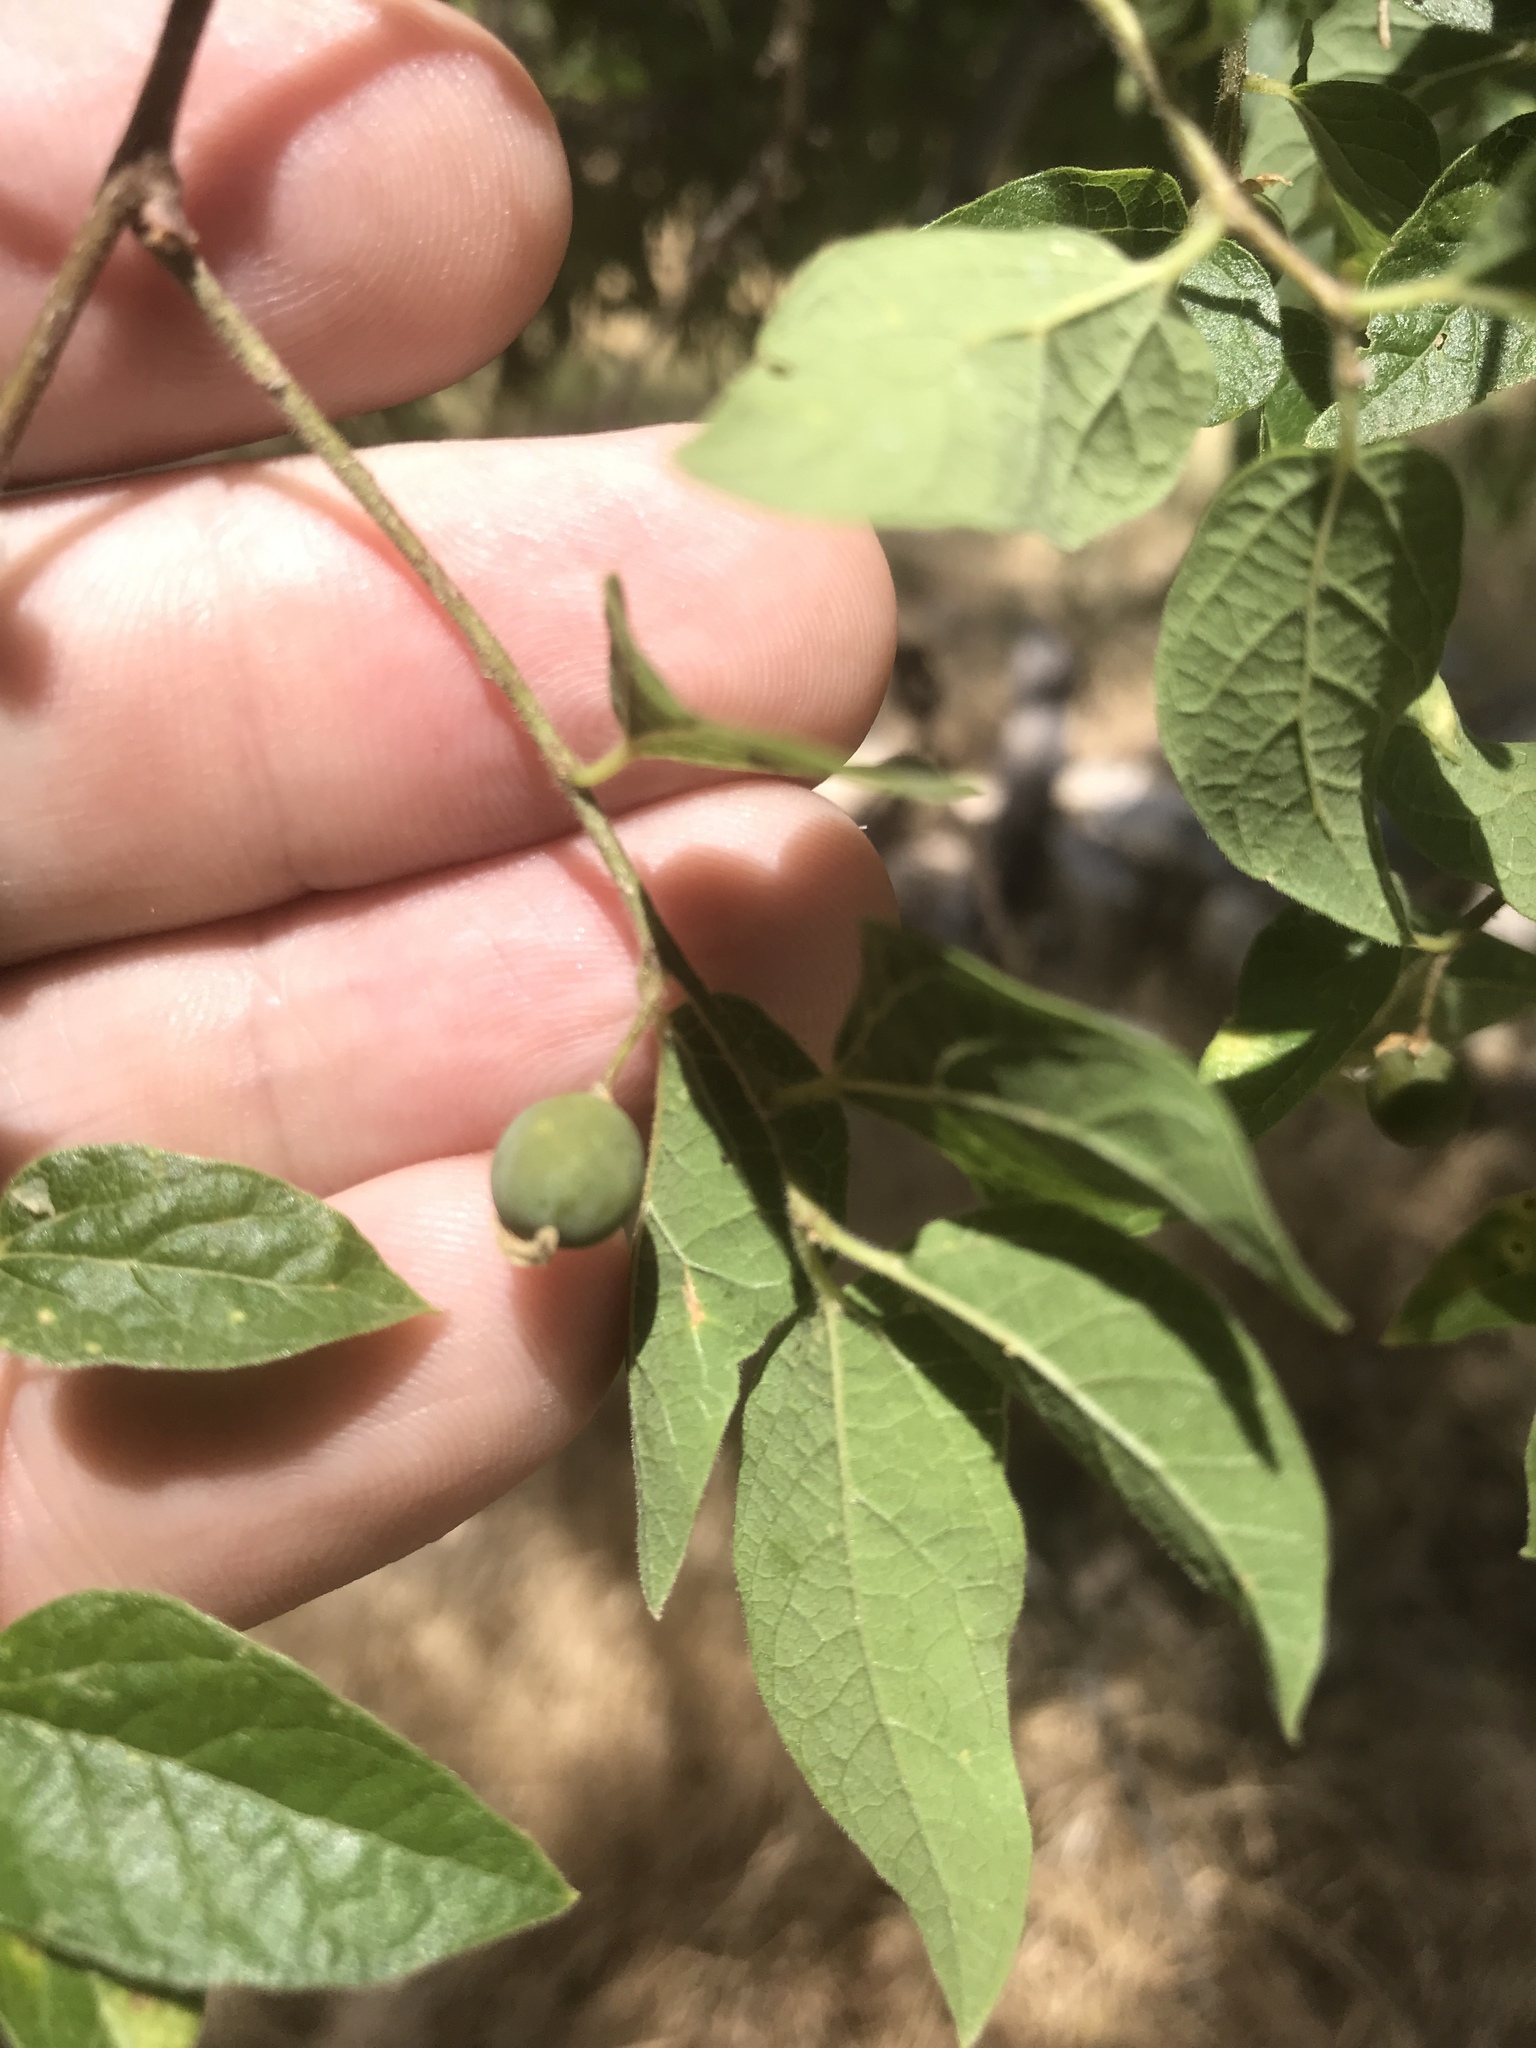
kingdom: Plantae
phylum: Tracheophyta
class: Magnoliopsida
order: Rosales
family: Cannabaceae
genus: Celtis
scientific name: Celtis reticulata
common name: Netleaf hackberry
